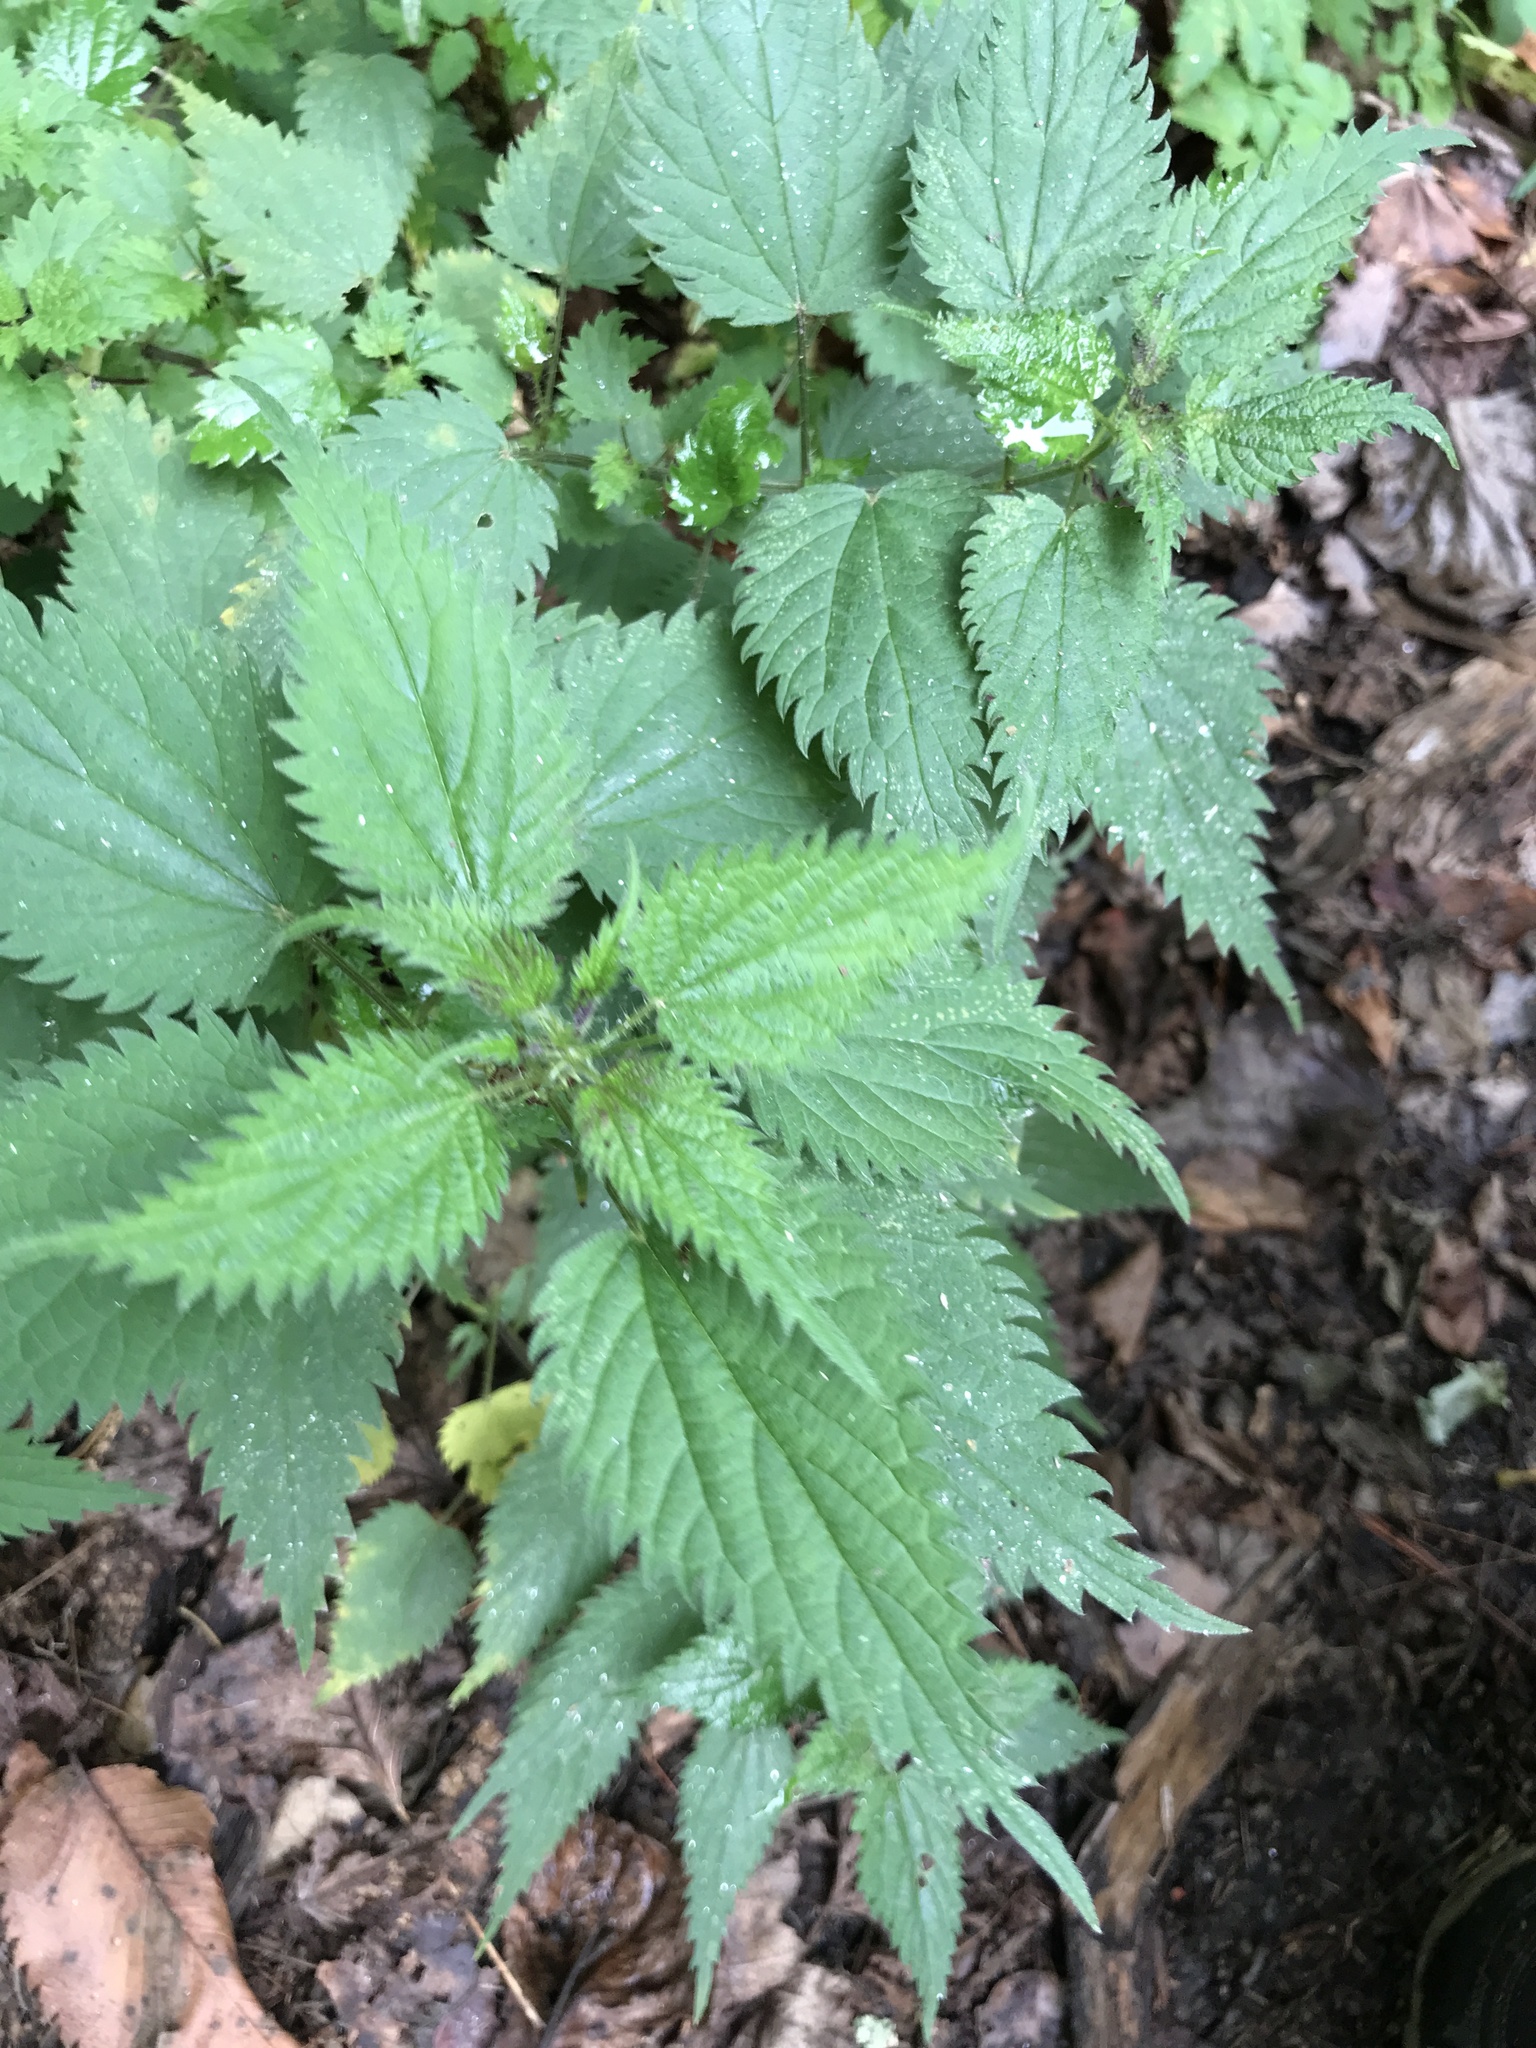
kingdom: Plantae
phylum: Tracheophyta
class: Magnoliopsida
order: Rosales
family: Urticaceae
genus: Urtica
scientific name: Urtica dioica
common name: Common nettle
